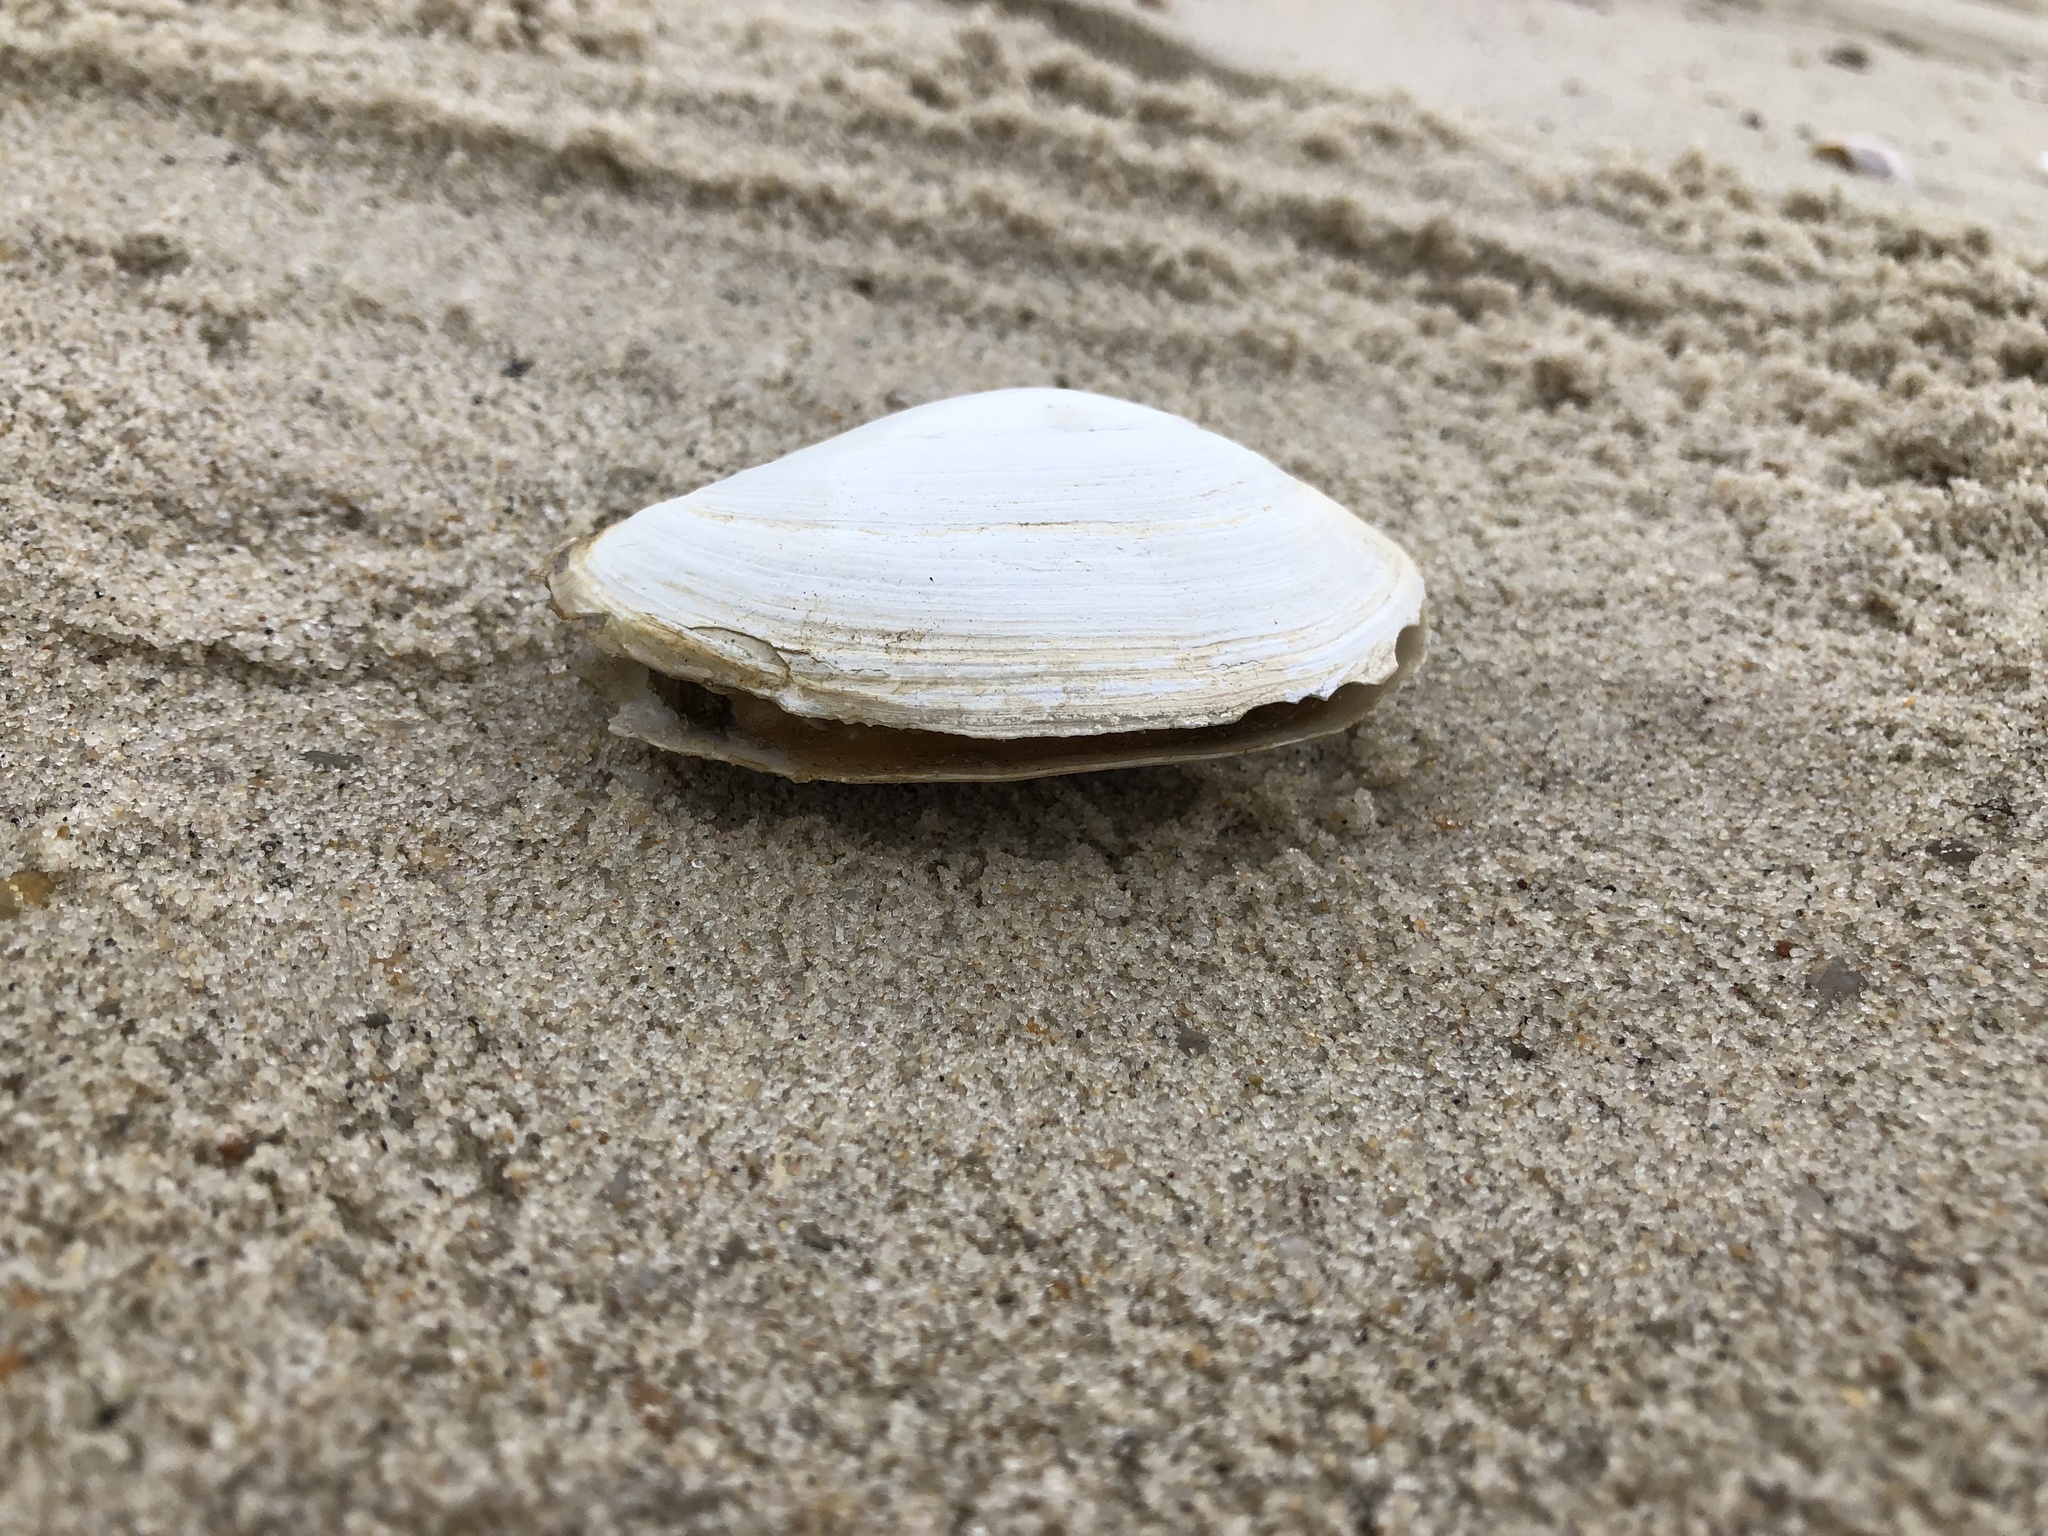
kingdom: Animalia
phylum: Mollusca
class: Bivalvia
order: Myida
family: Myidae
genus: Mya
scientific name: Mya arenaria
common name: Soft-shelled clam
